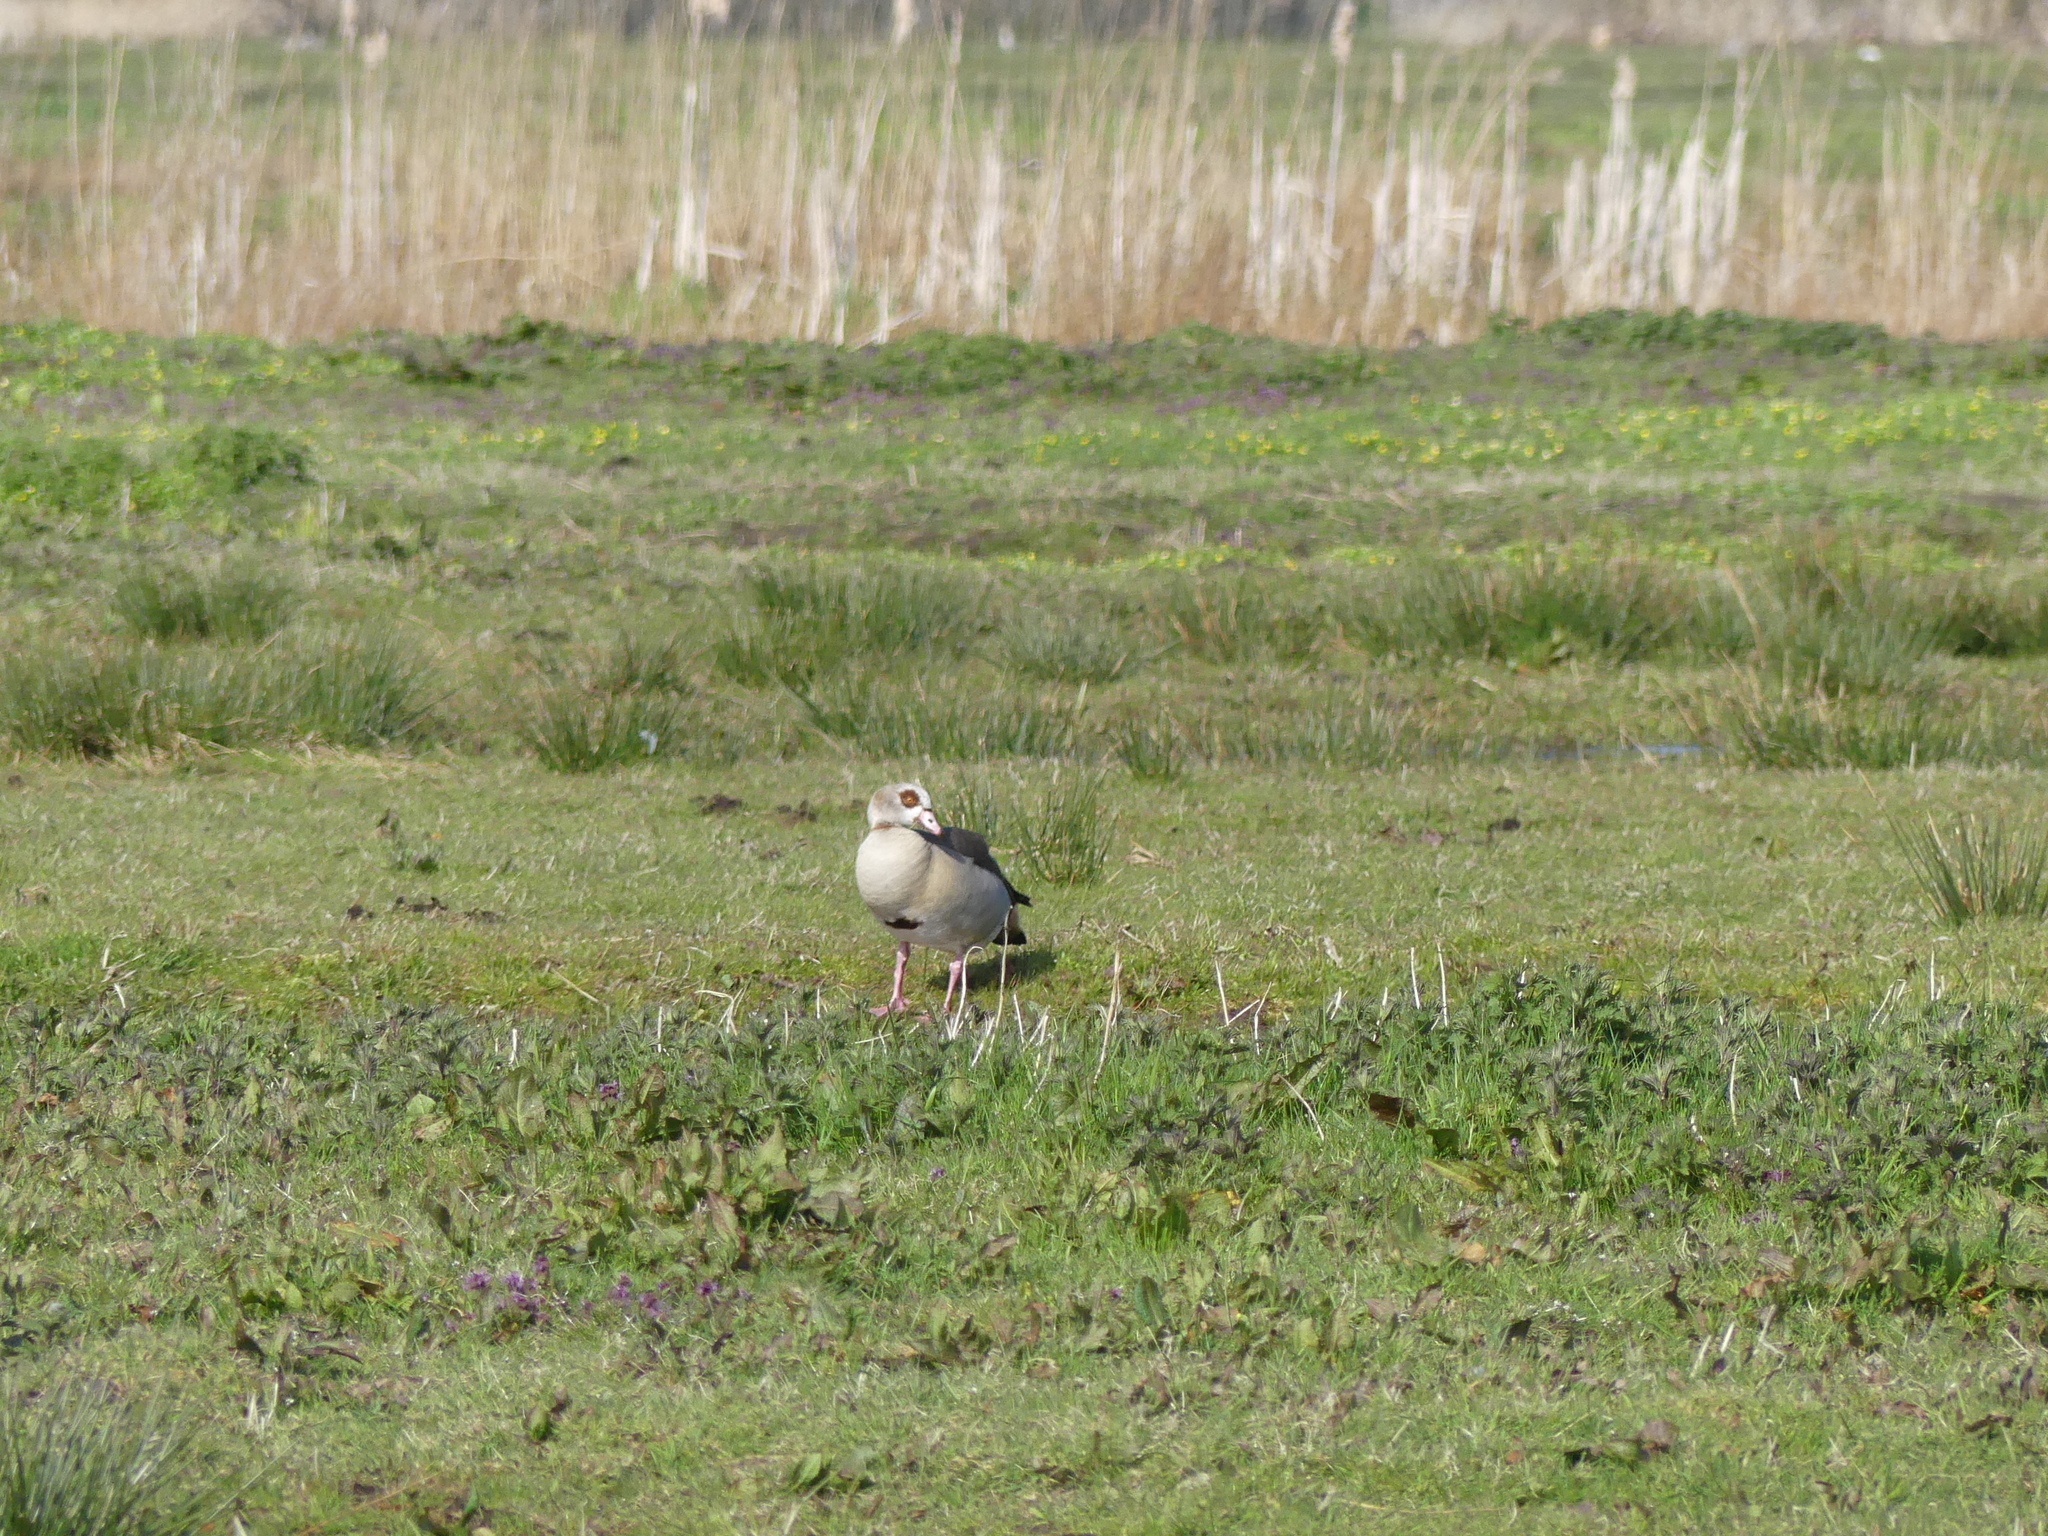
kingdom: Animalia
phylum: Chordata
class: Aves
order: Anseriformes
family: Anatidae
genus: Alopochen
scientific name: Alopochen aegyptiaca
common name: Egyptian goose
